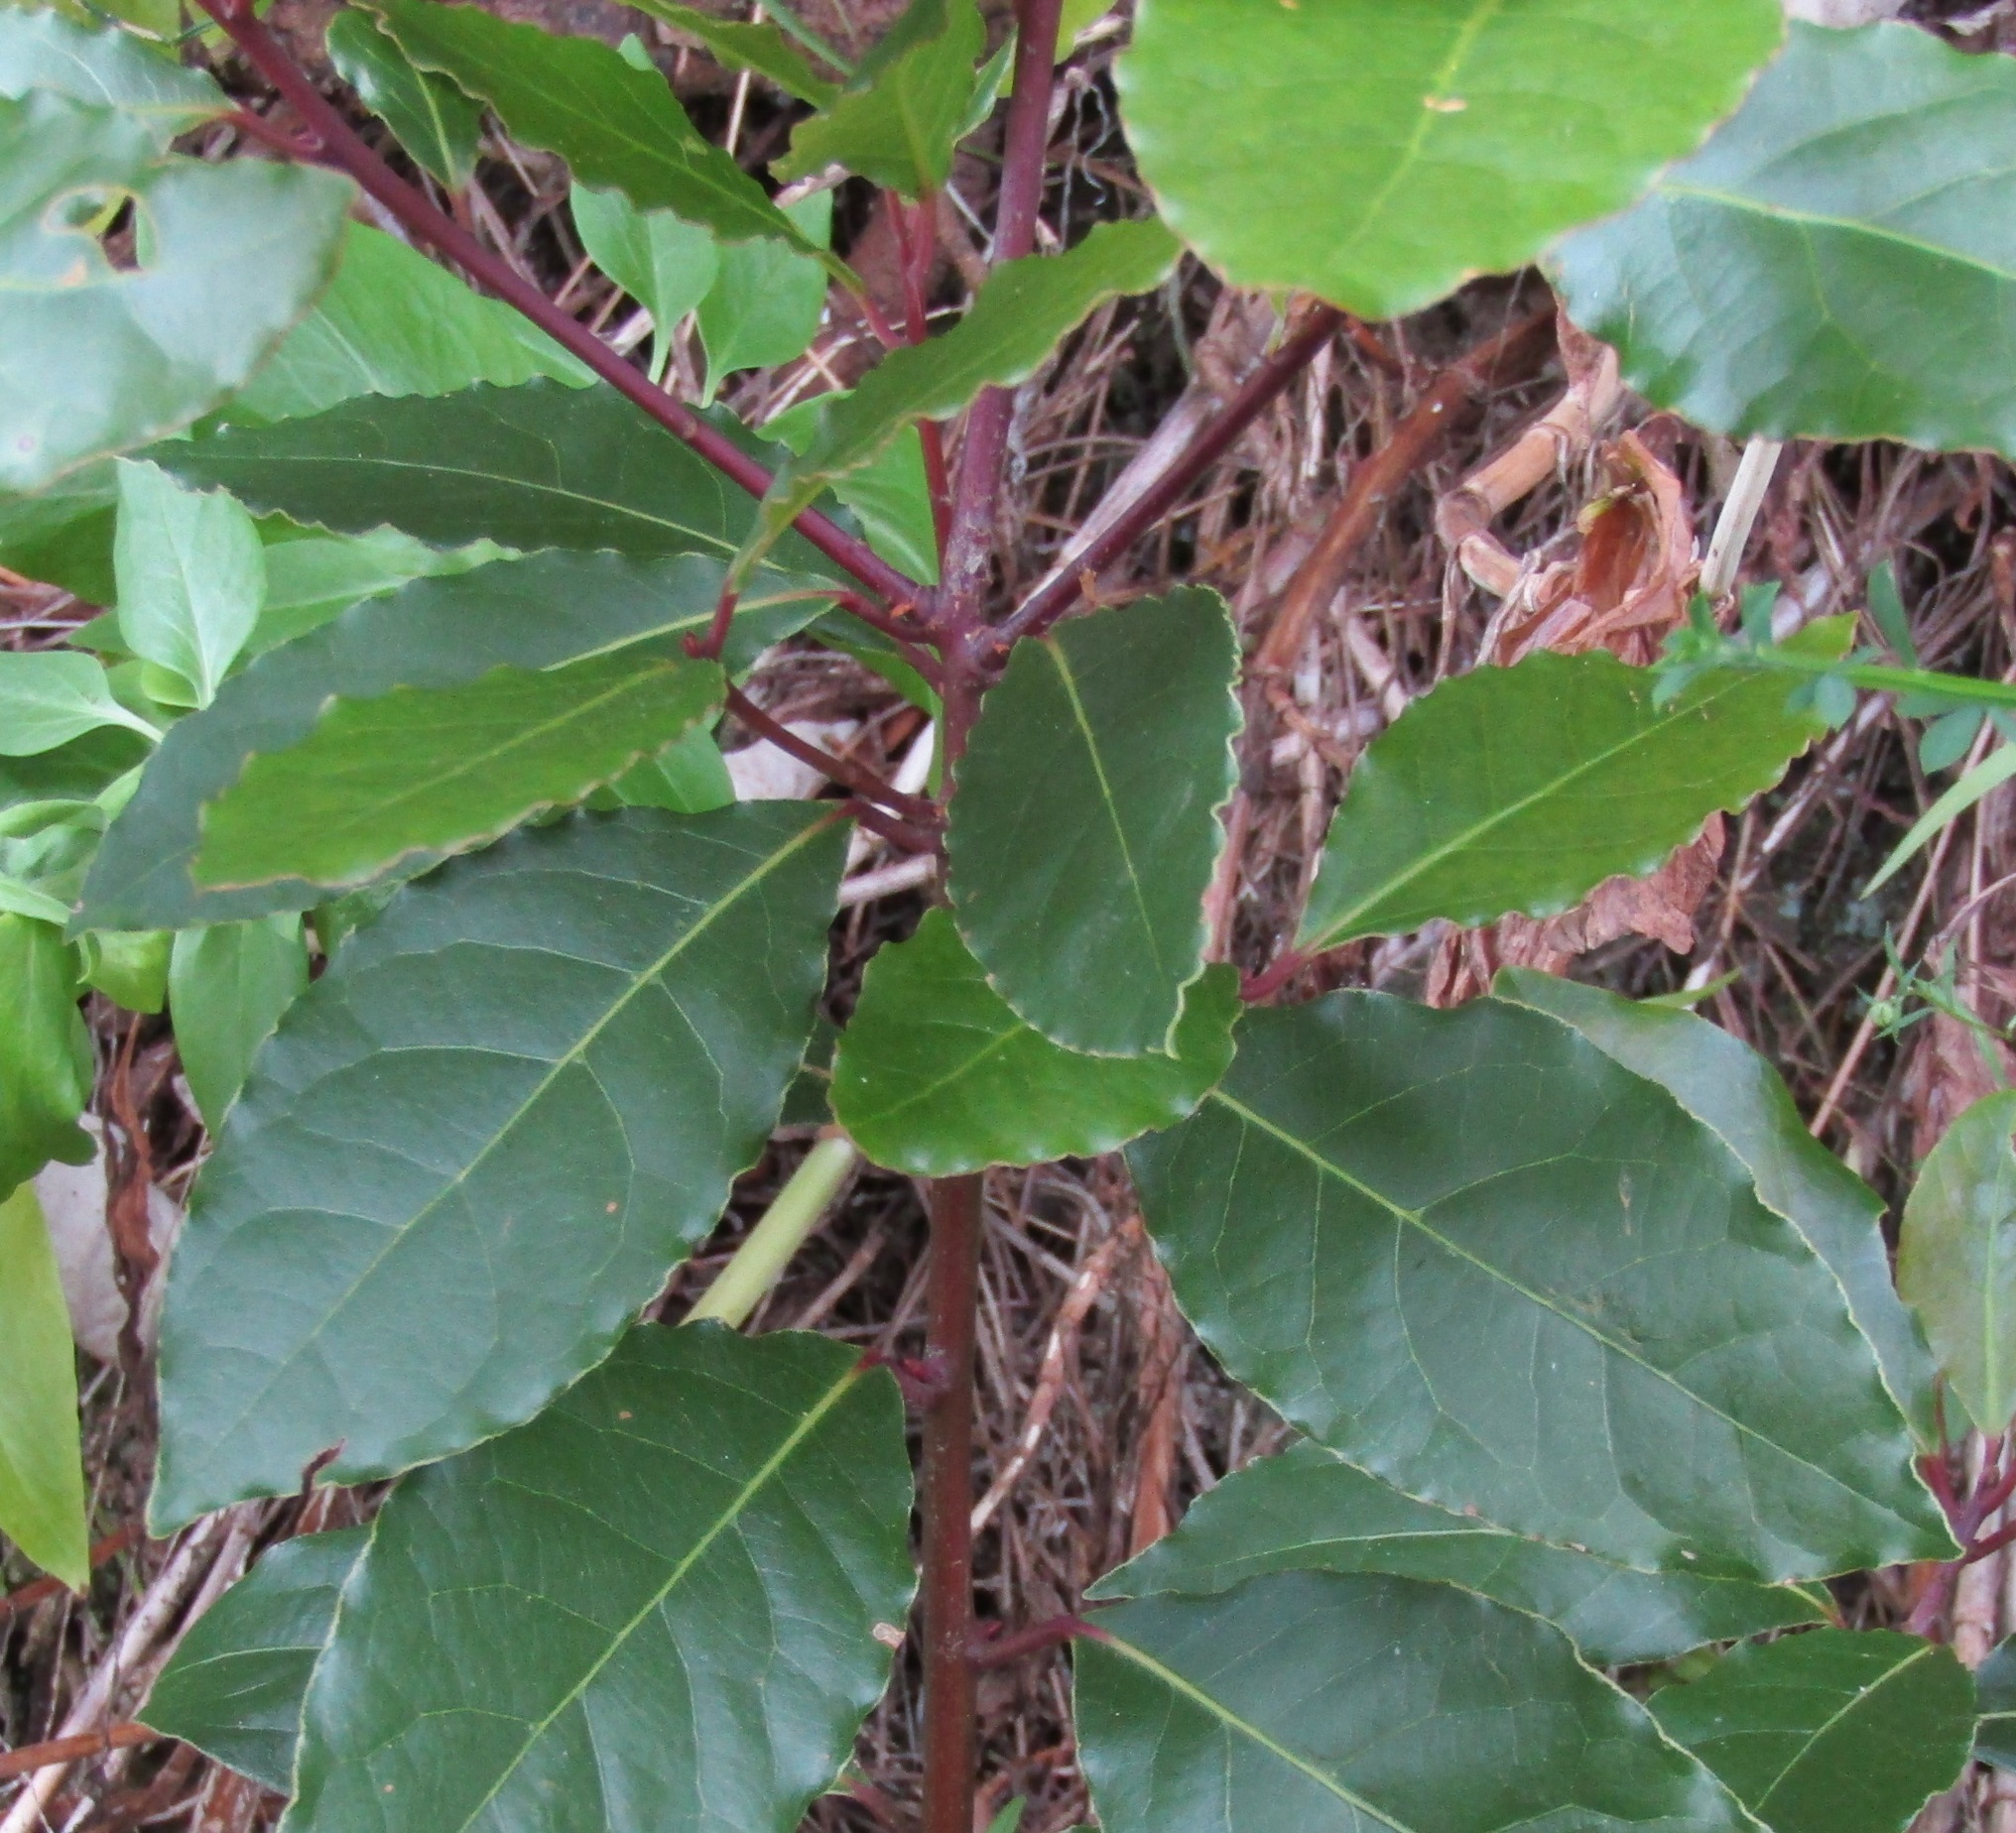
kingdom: Plantae
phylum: Tracheophyta
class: Magnoliopsida
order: Laurales
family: Lauraceae
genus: Laurus
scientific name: Laurus nobilis
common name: Bay
